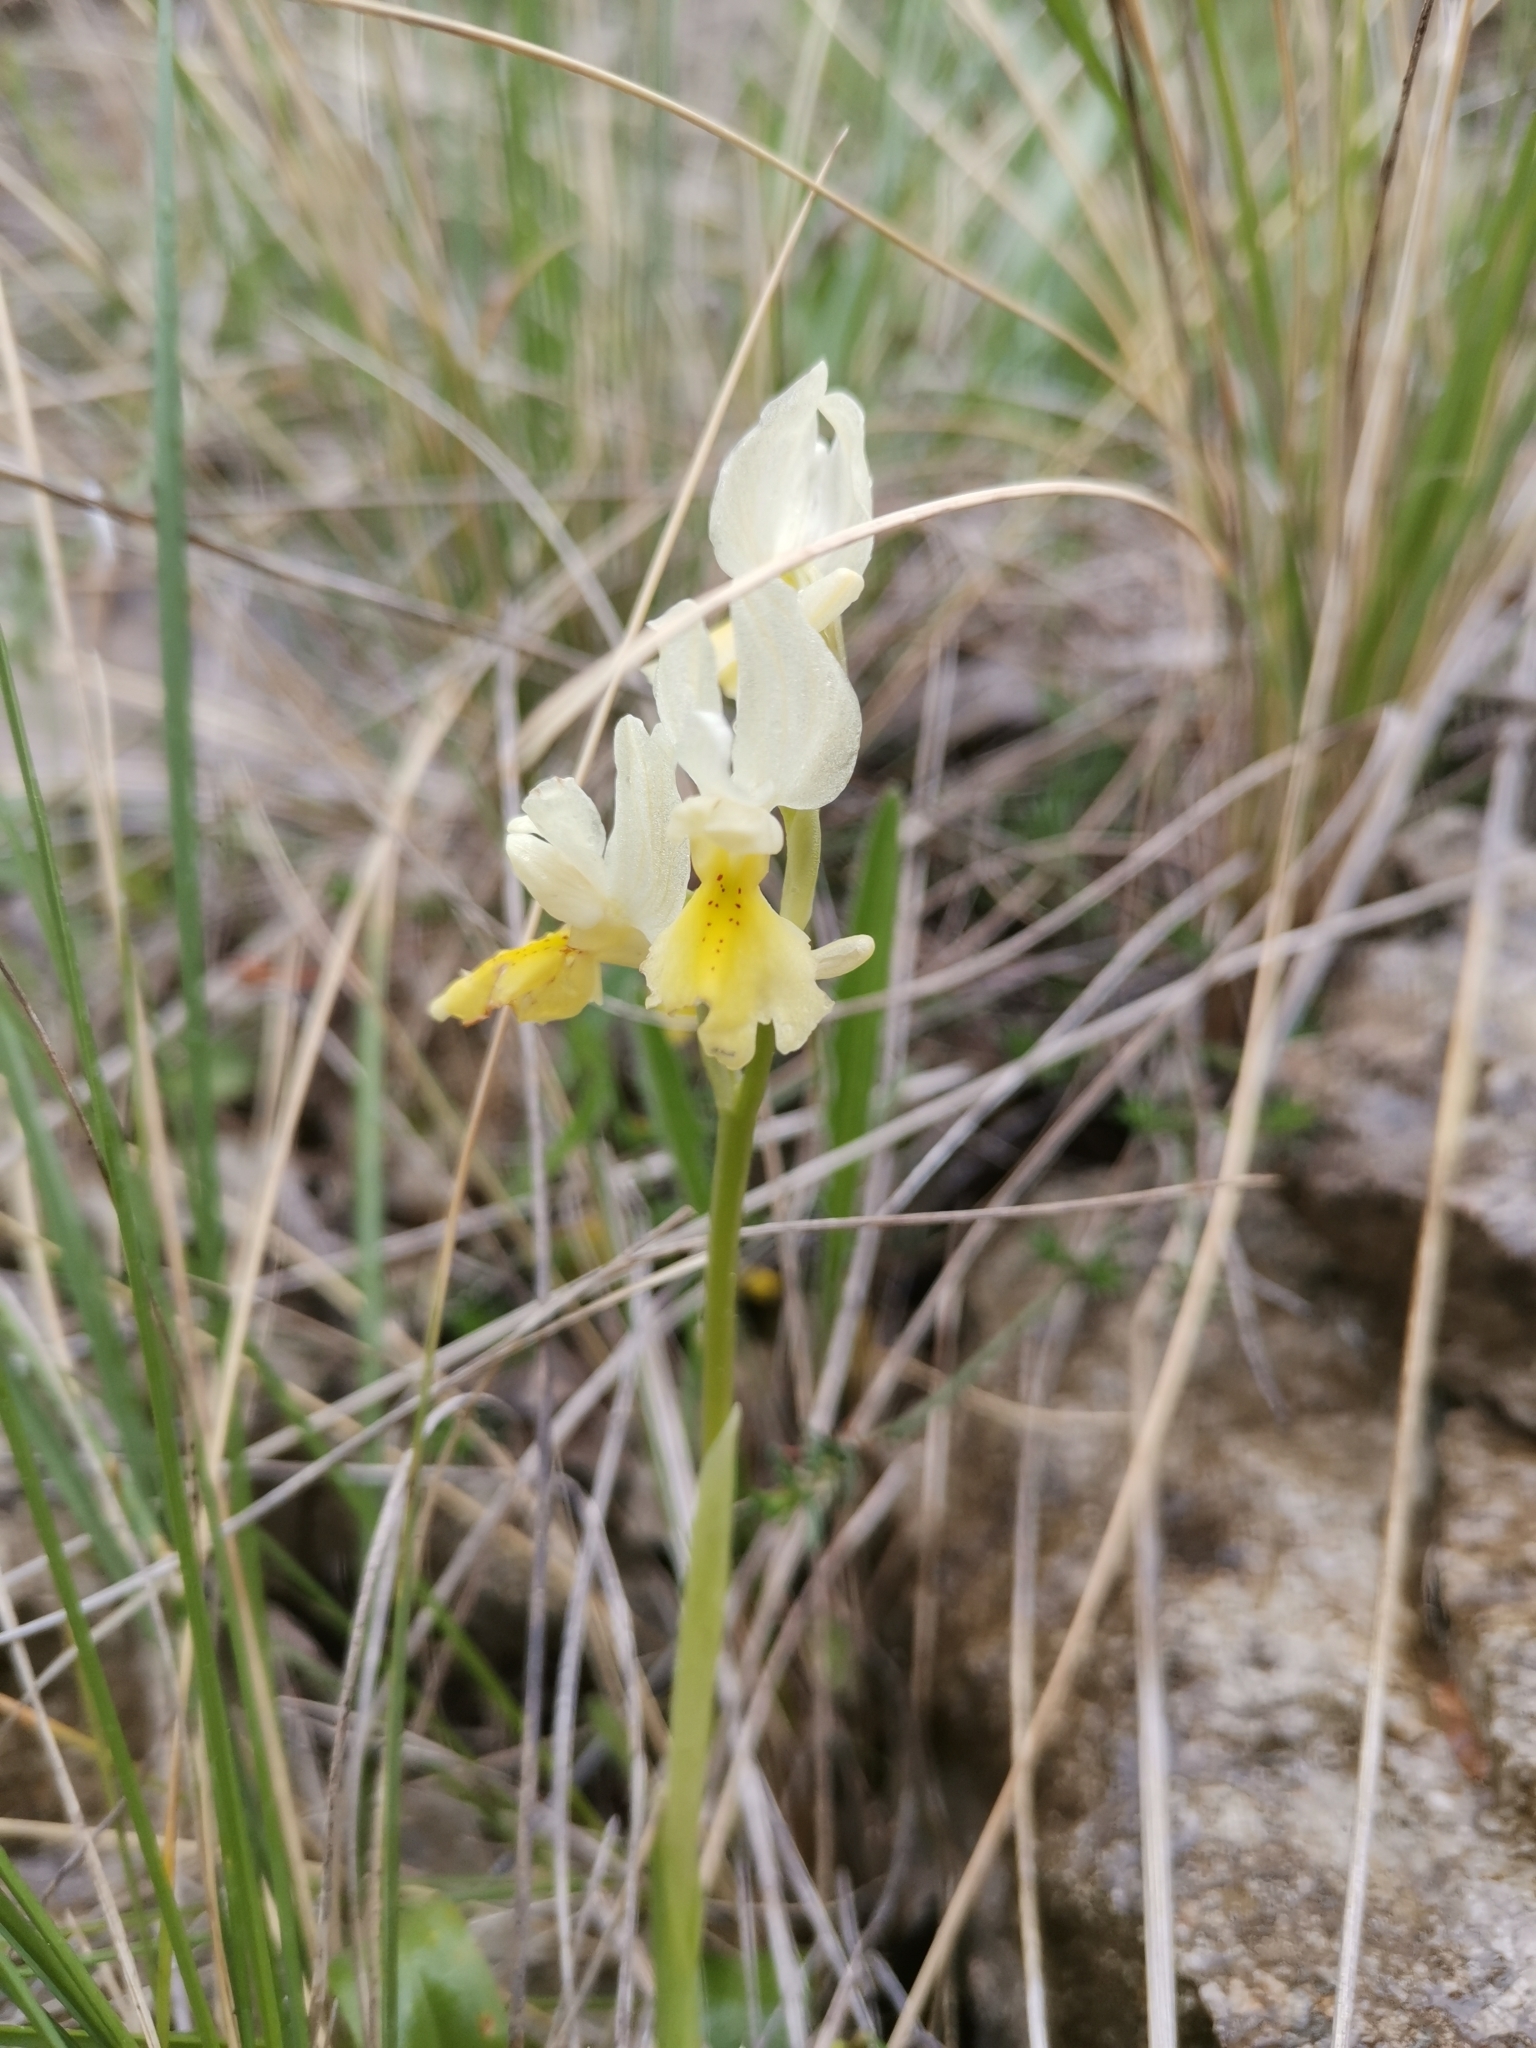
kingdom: Plantae
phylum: Tracheophyta
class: Liliopsida
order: Asparagales
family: Orchidaceae
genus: Orchis
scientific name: Orchis pauciflora
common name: Few-flowered orchid
